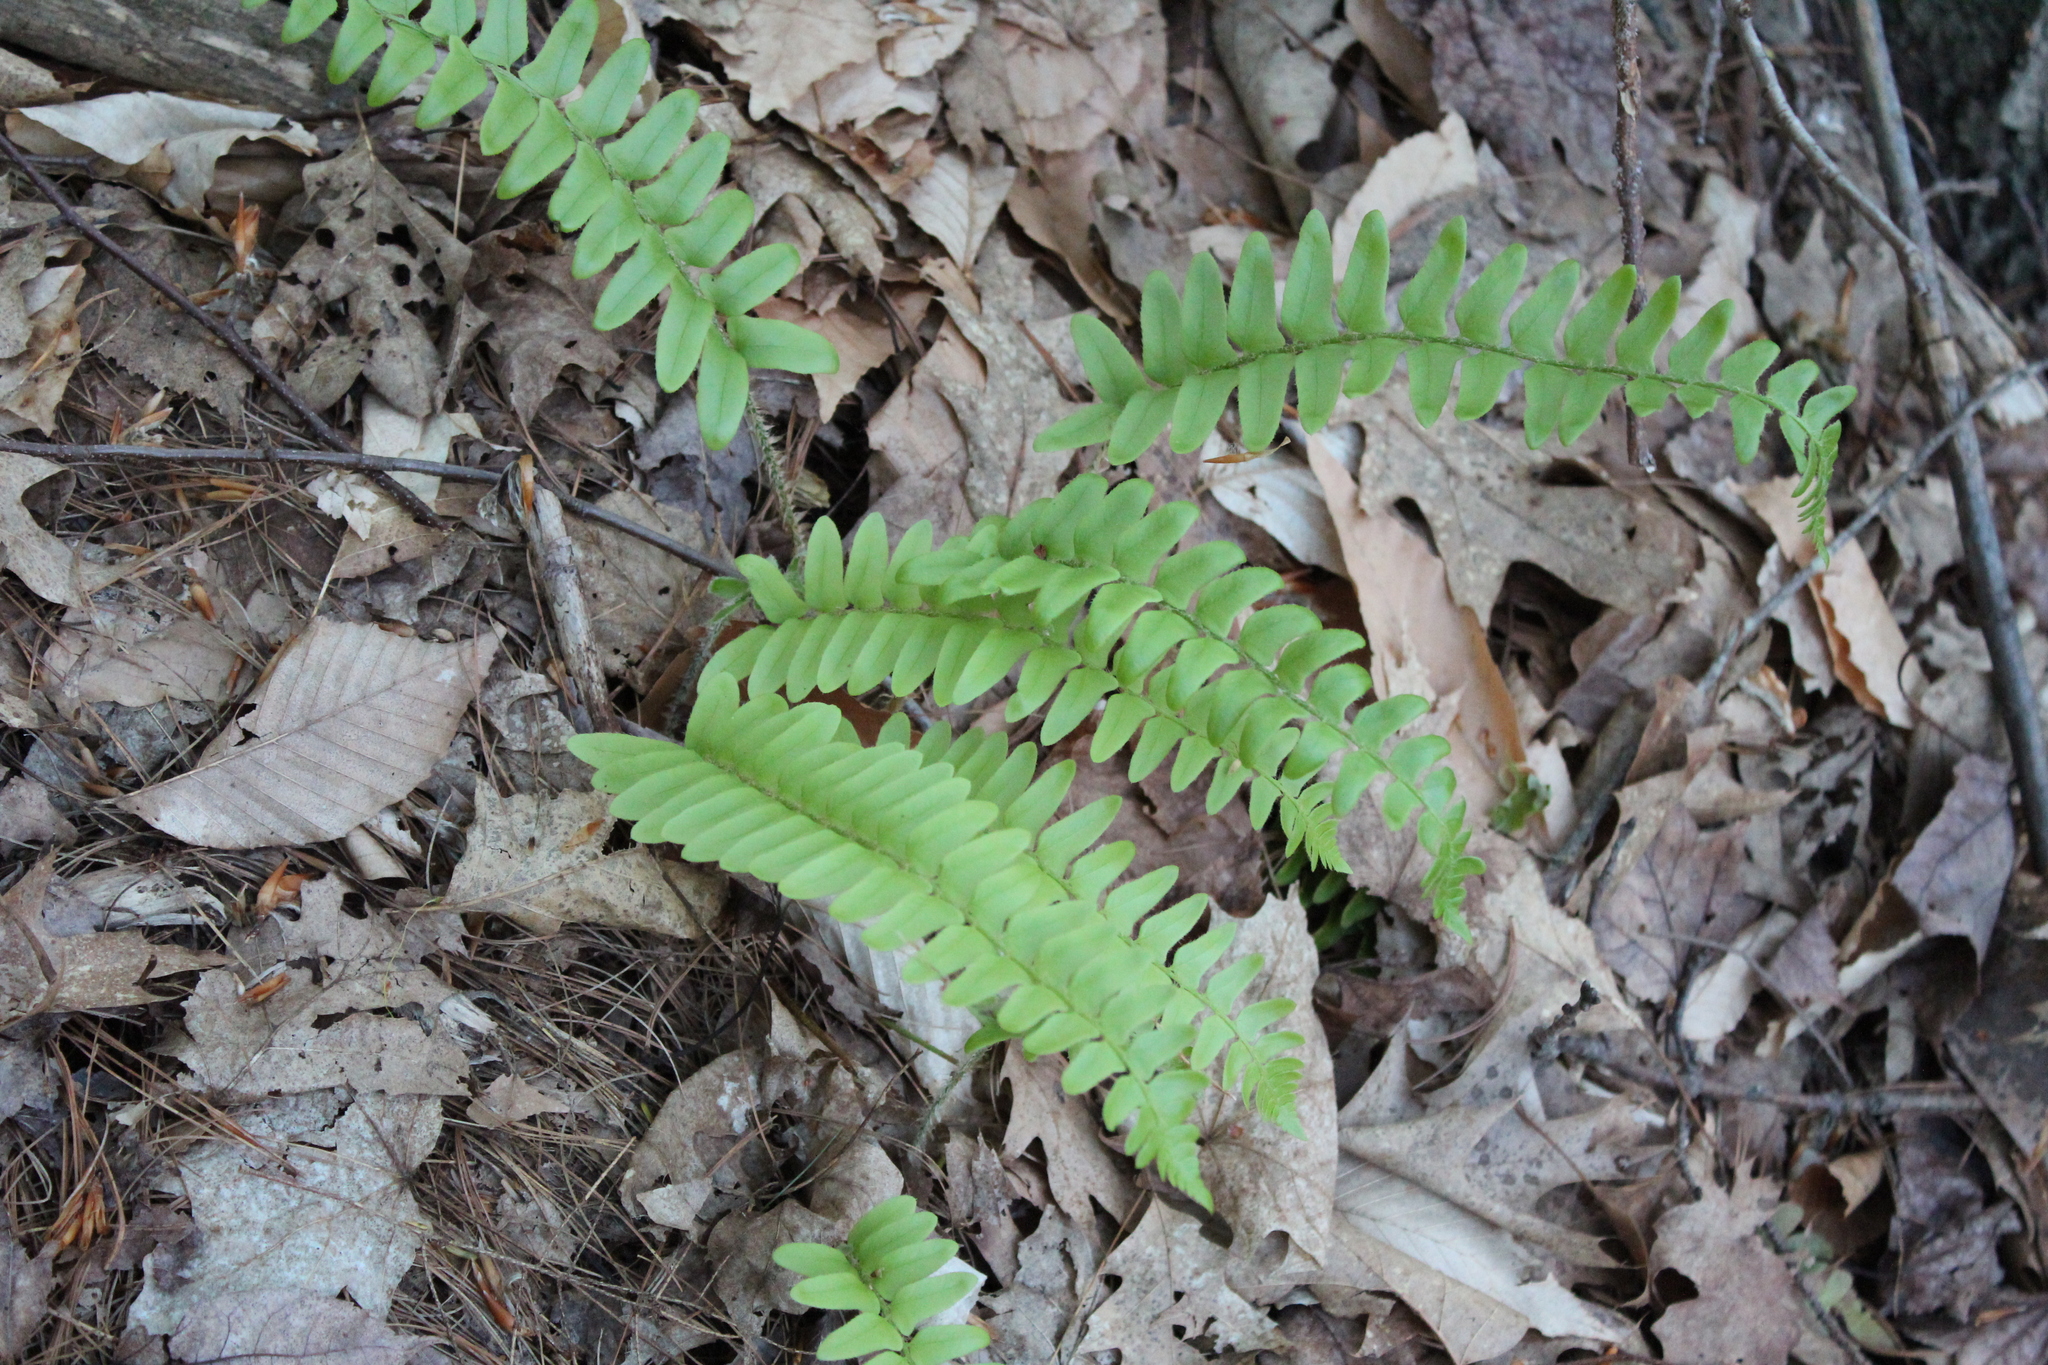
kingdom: Plantae
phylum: Tracheophyta
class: Polypodiopsida
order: Polypodiales
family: Dryopteridaceae
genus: Polystichum
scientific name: Polystichum acrostichoides
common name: Christmas fern
